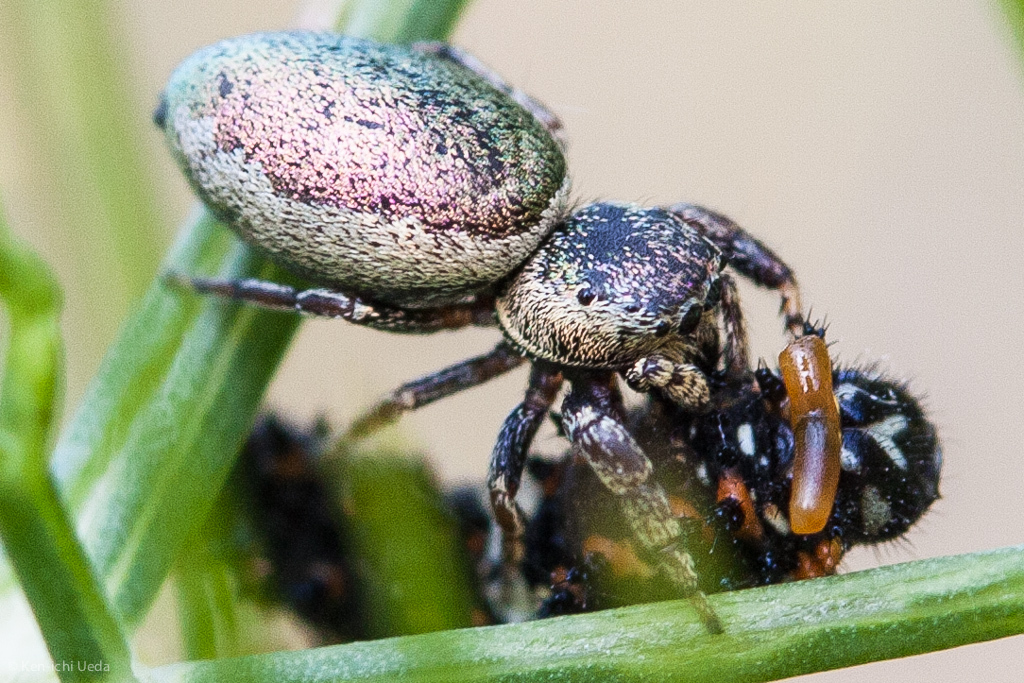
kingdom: Animalia
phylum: Arthropoda
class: Arachnida
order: Araneae
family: Salticidae
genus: Sassacus
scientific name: Sassacus papenhoei
